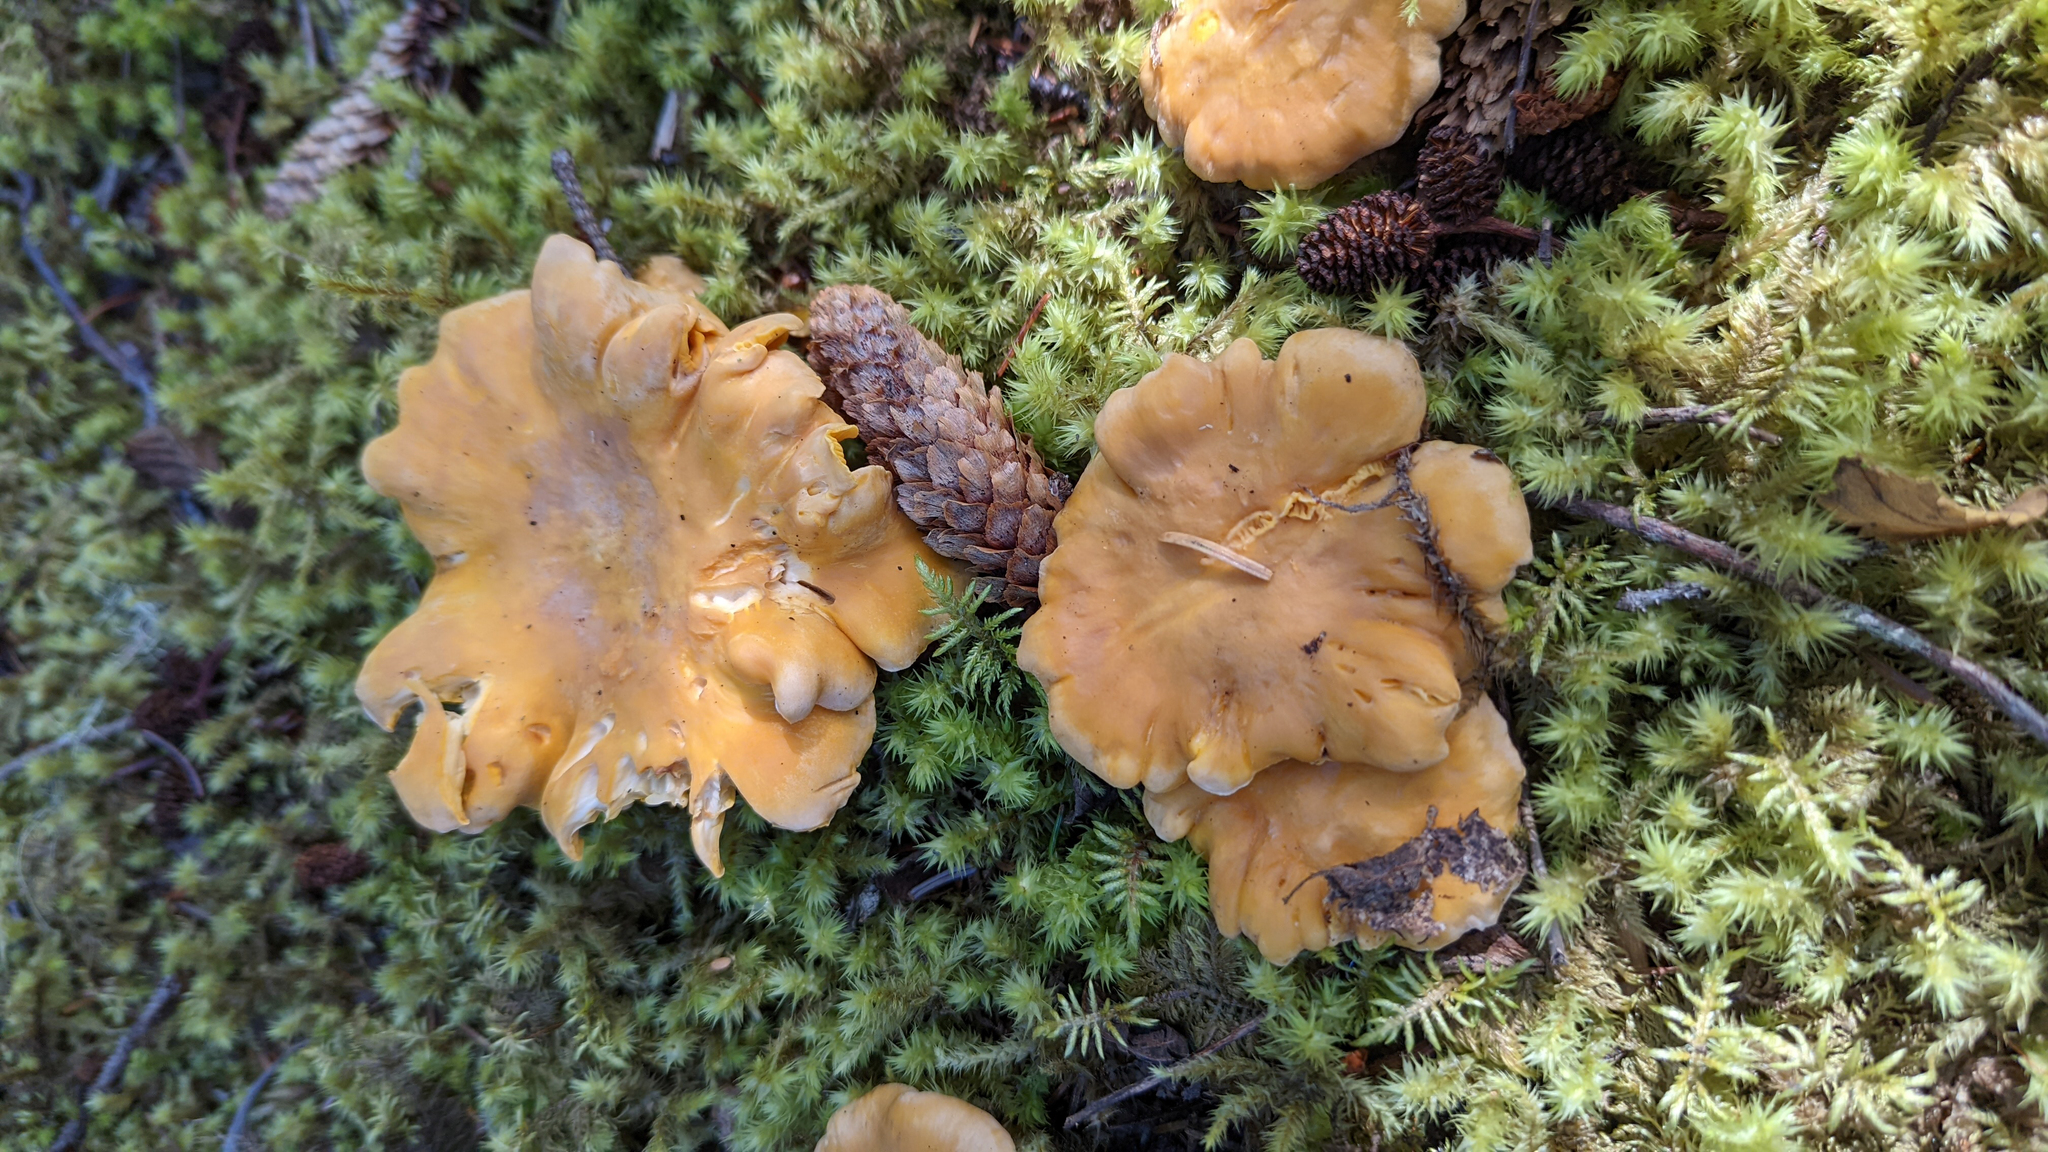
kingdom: Fungi
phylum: Basidiomycota
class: Agaricomycetes
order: Cantharellales
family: Hydnaceae
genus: Cantharellus
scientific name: Cantharellus roseocanus
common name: Rainbow chanterelle
